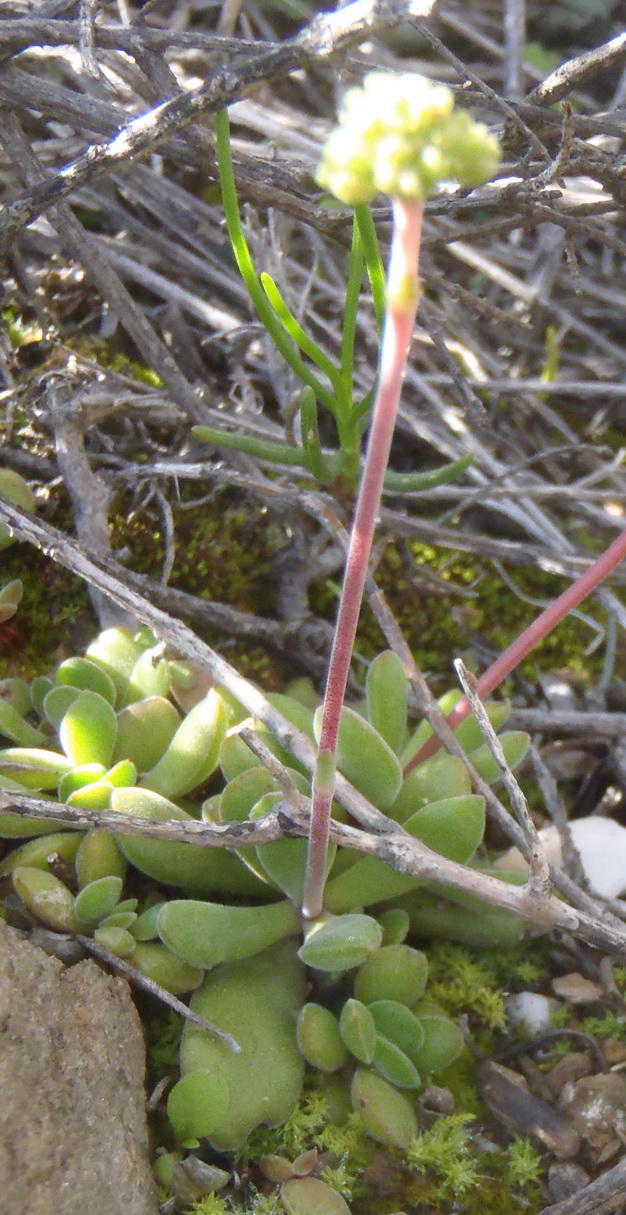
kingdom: Plantae
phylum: Tracheophyta
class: Magnoliopsida
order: Saxifragales
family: Crassulaceae
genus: Crassula
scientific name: Crassula atropurpurea
